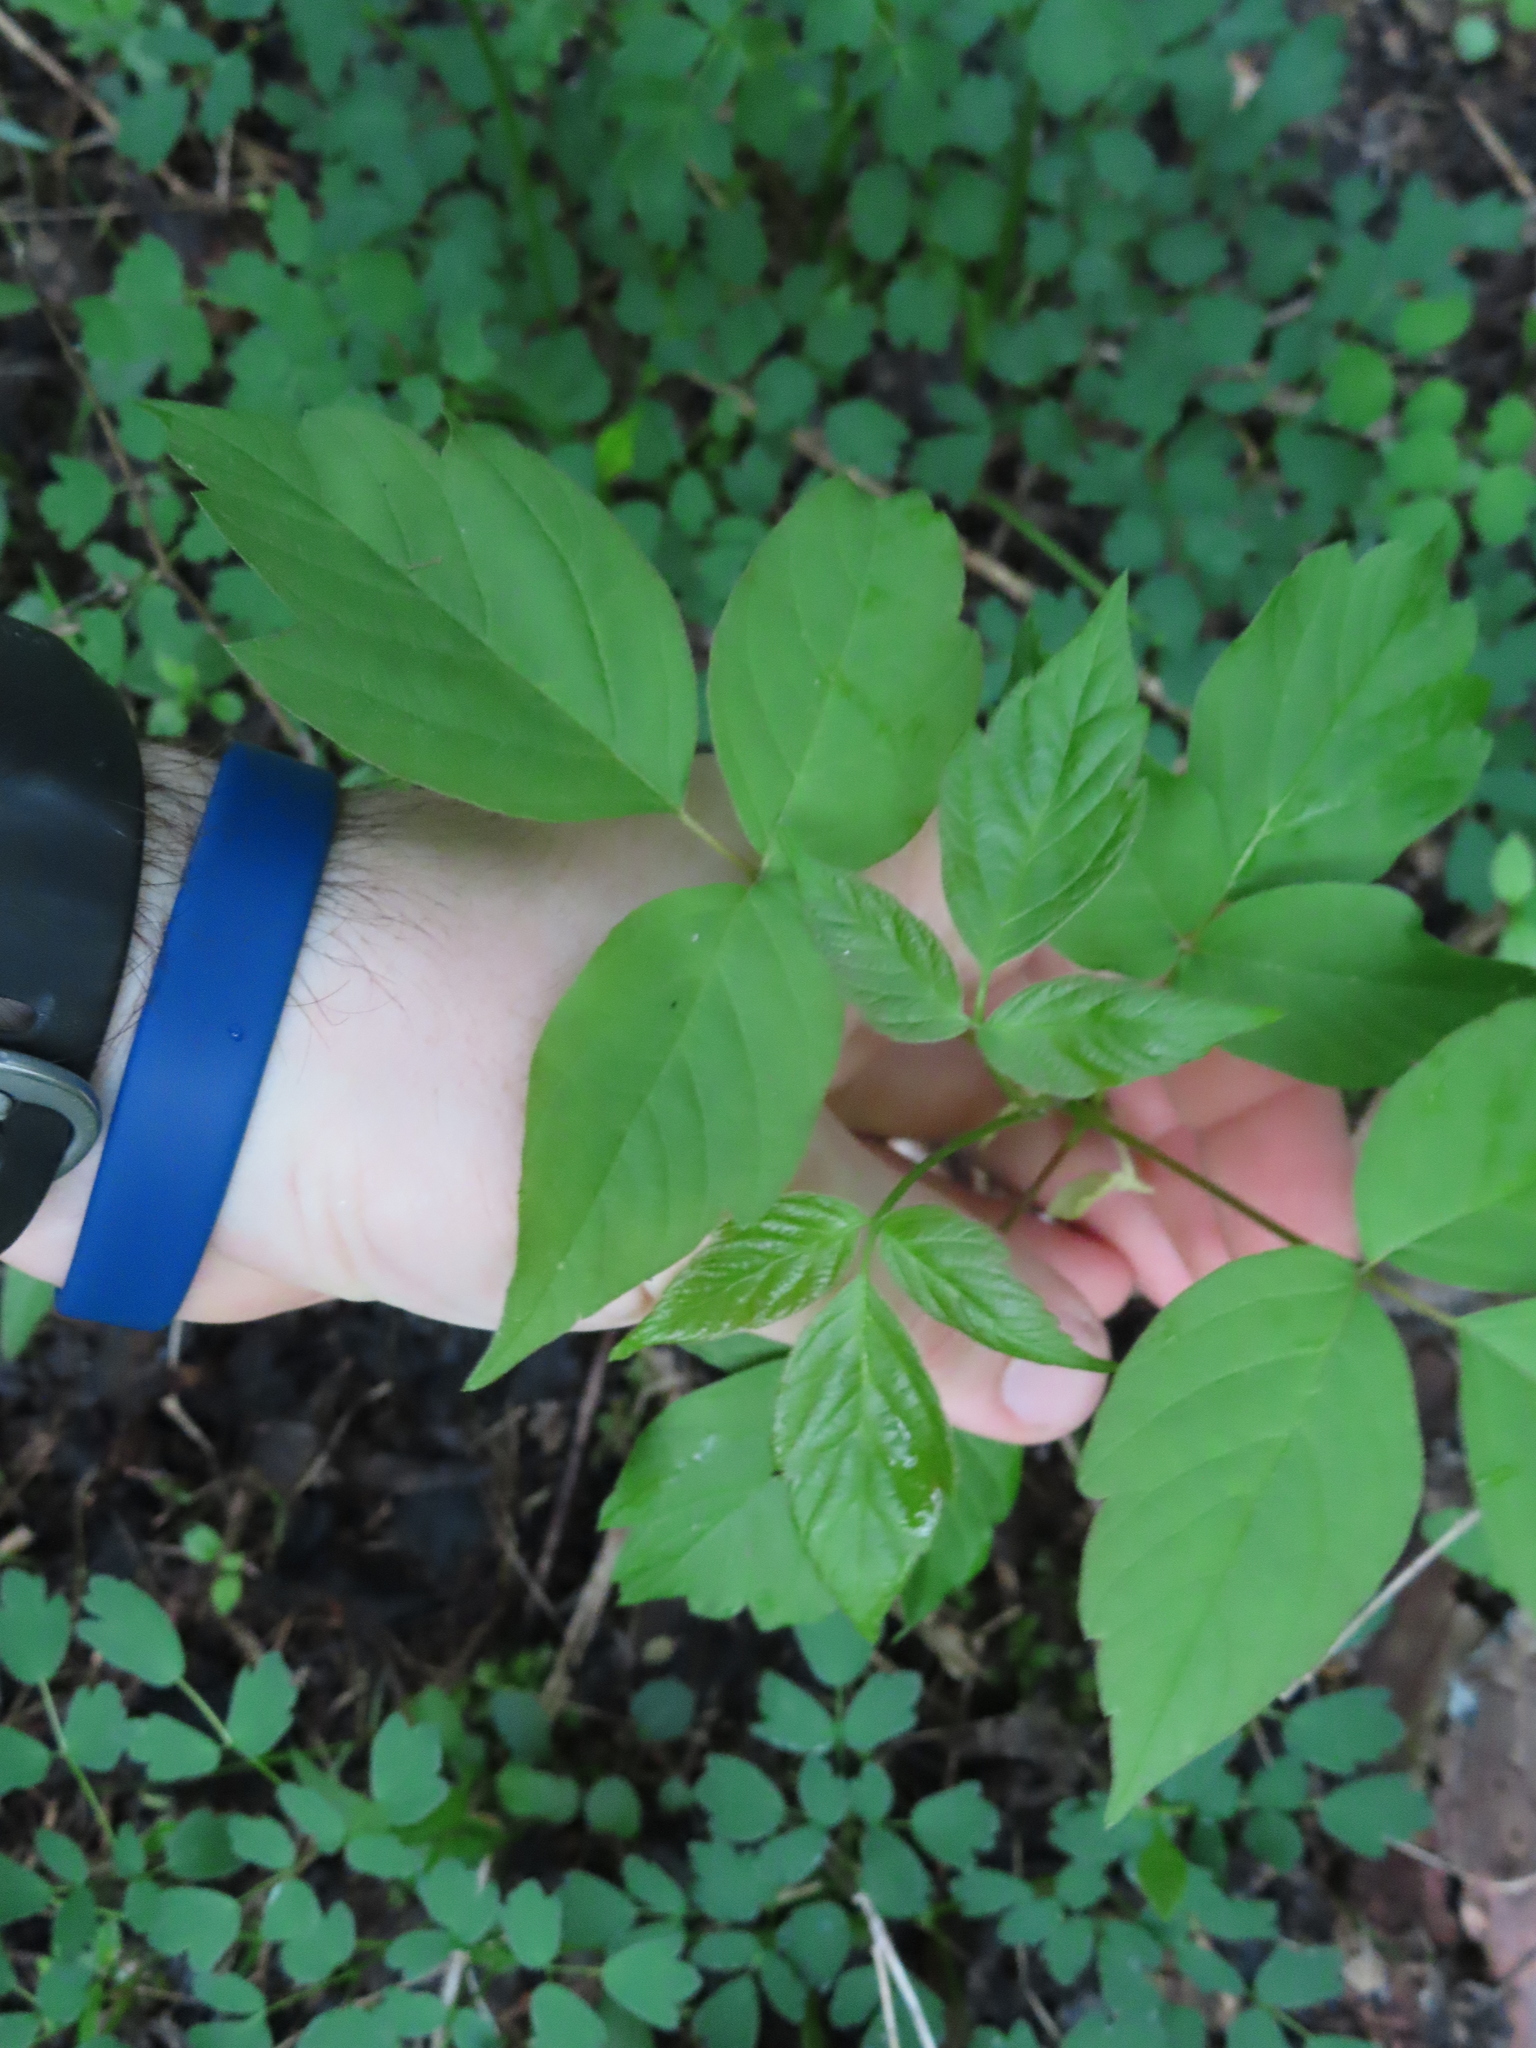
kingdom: Plantae
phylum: Tracheophyta
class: Magnoliopsida
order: Sapindales
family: Sapindaceae
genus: Acer
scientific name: Acer negundo
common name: Ashleaf maple
